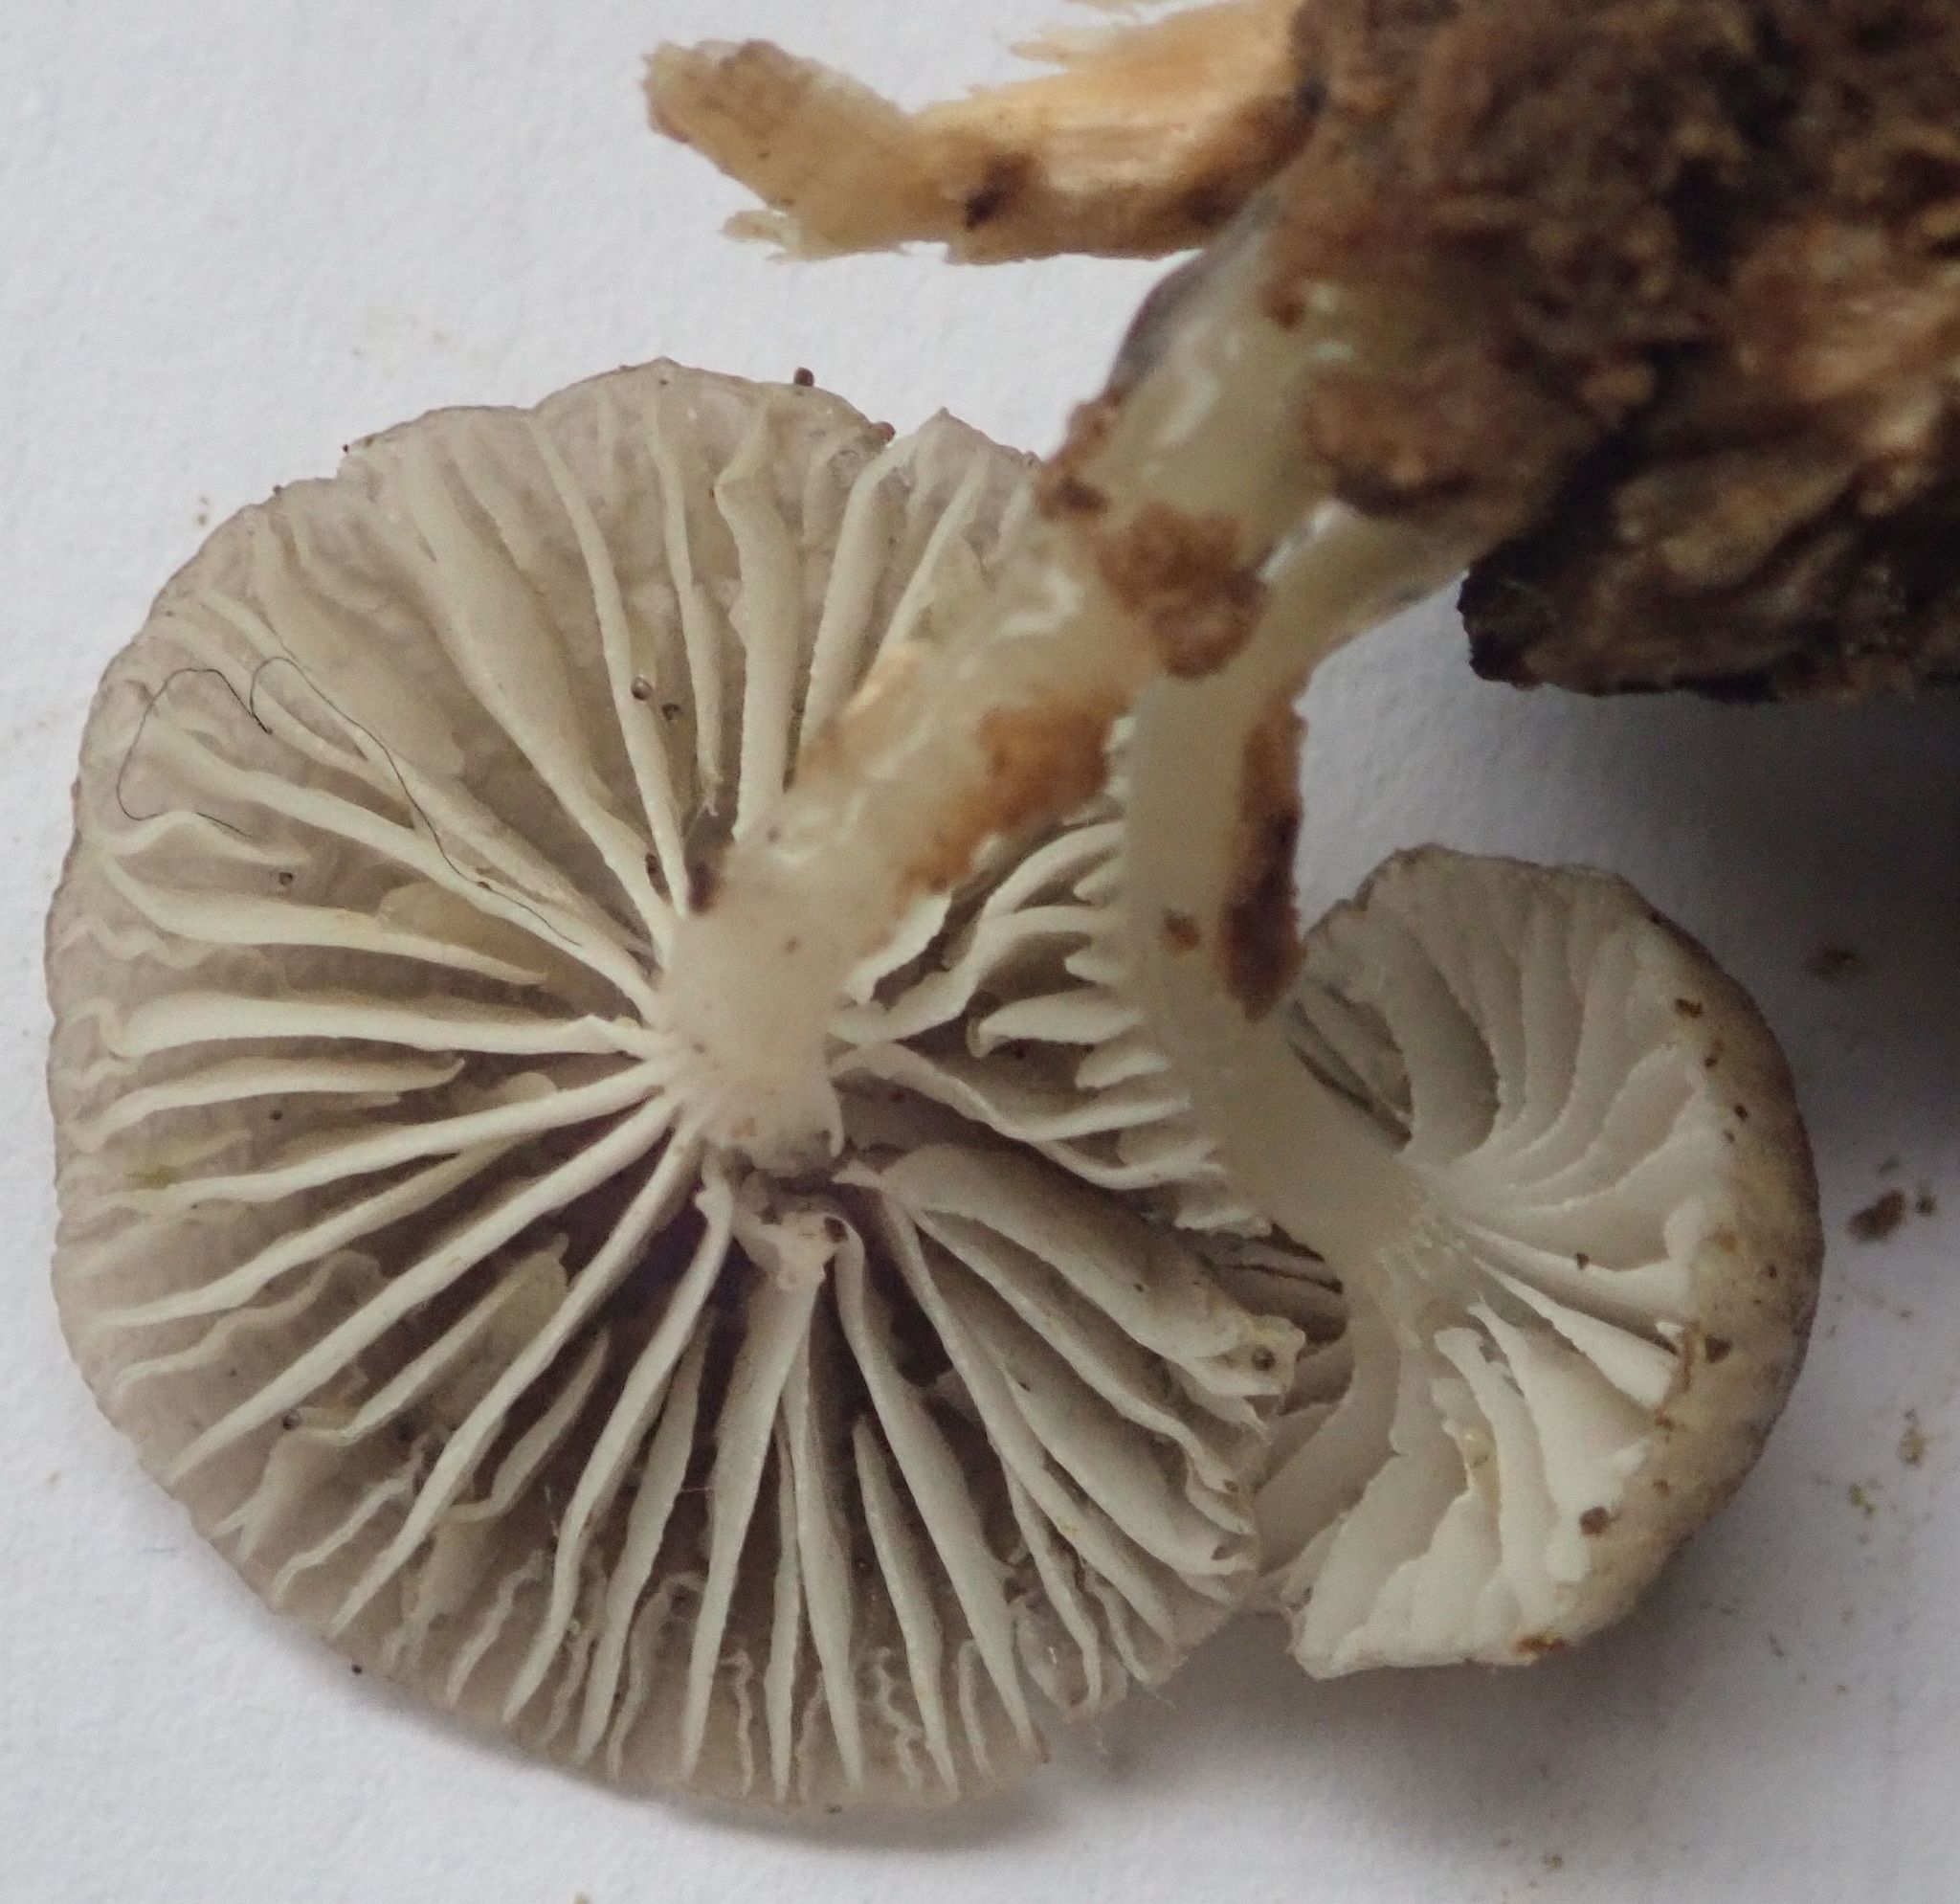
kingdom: Fungi
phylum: Basidiomycota
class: Agaricomycetes
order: Agaricales
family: Mycenaceae
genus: Roridomyces
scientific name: Roridomyces austrororidus
